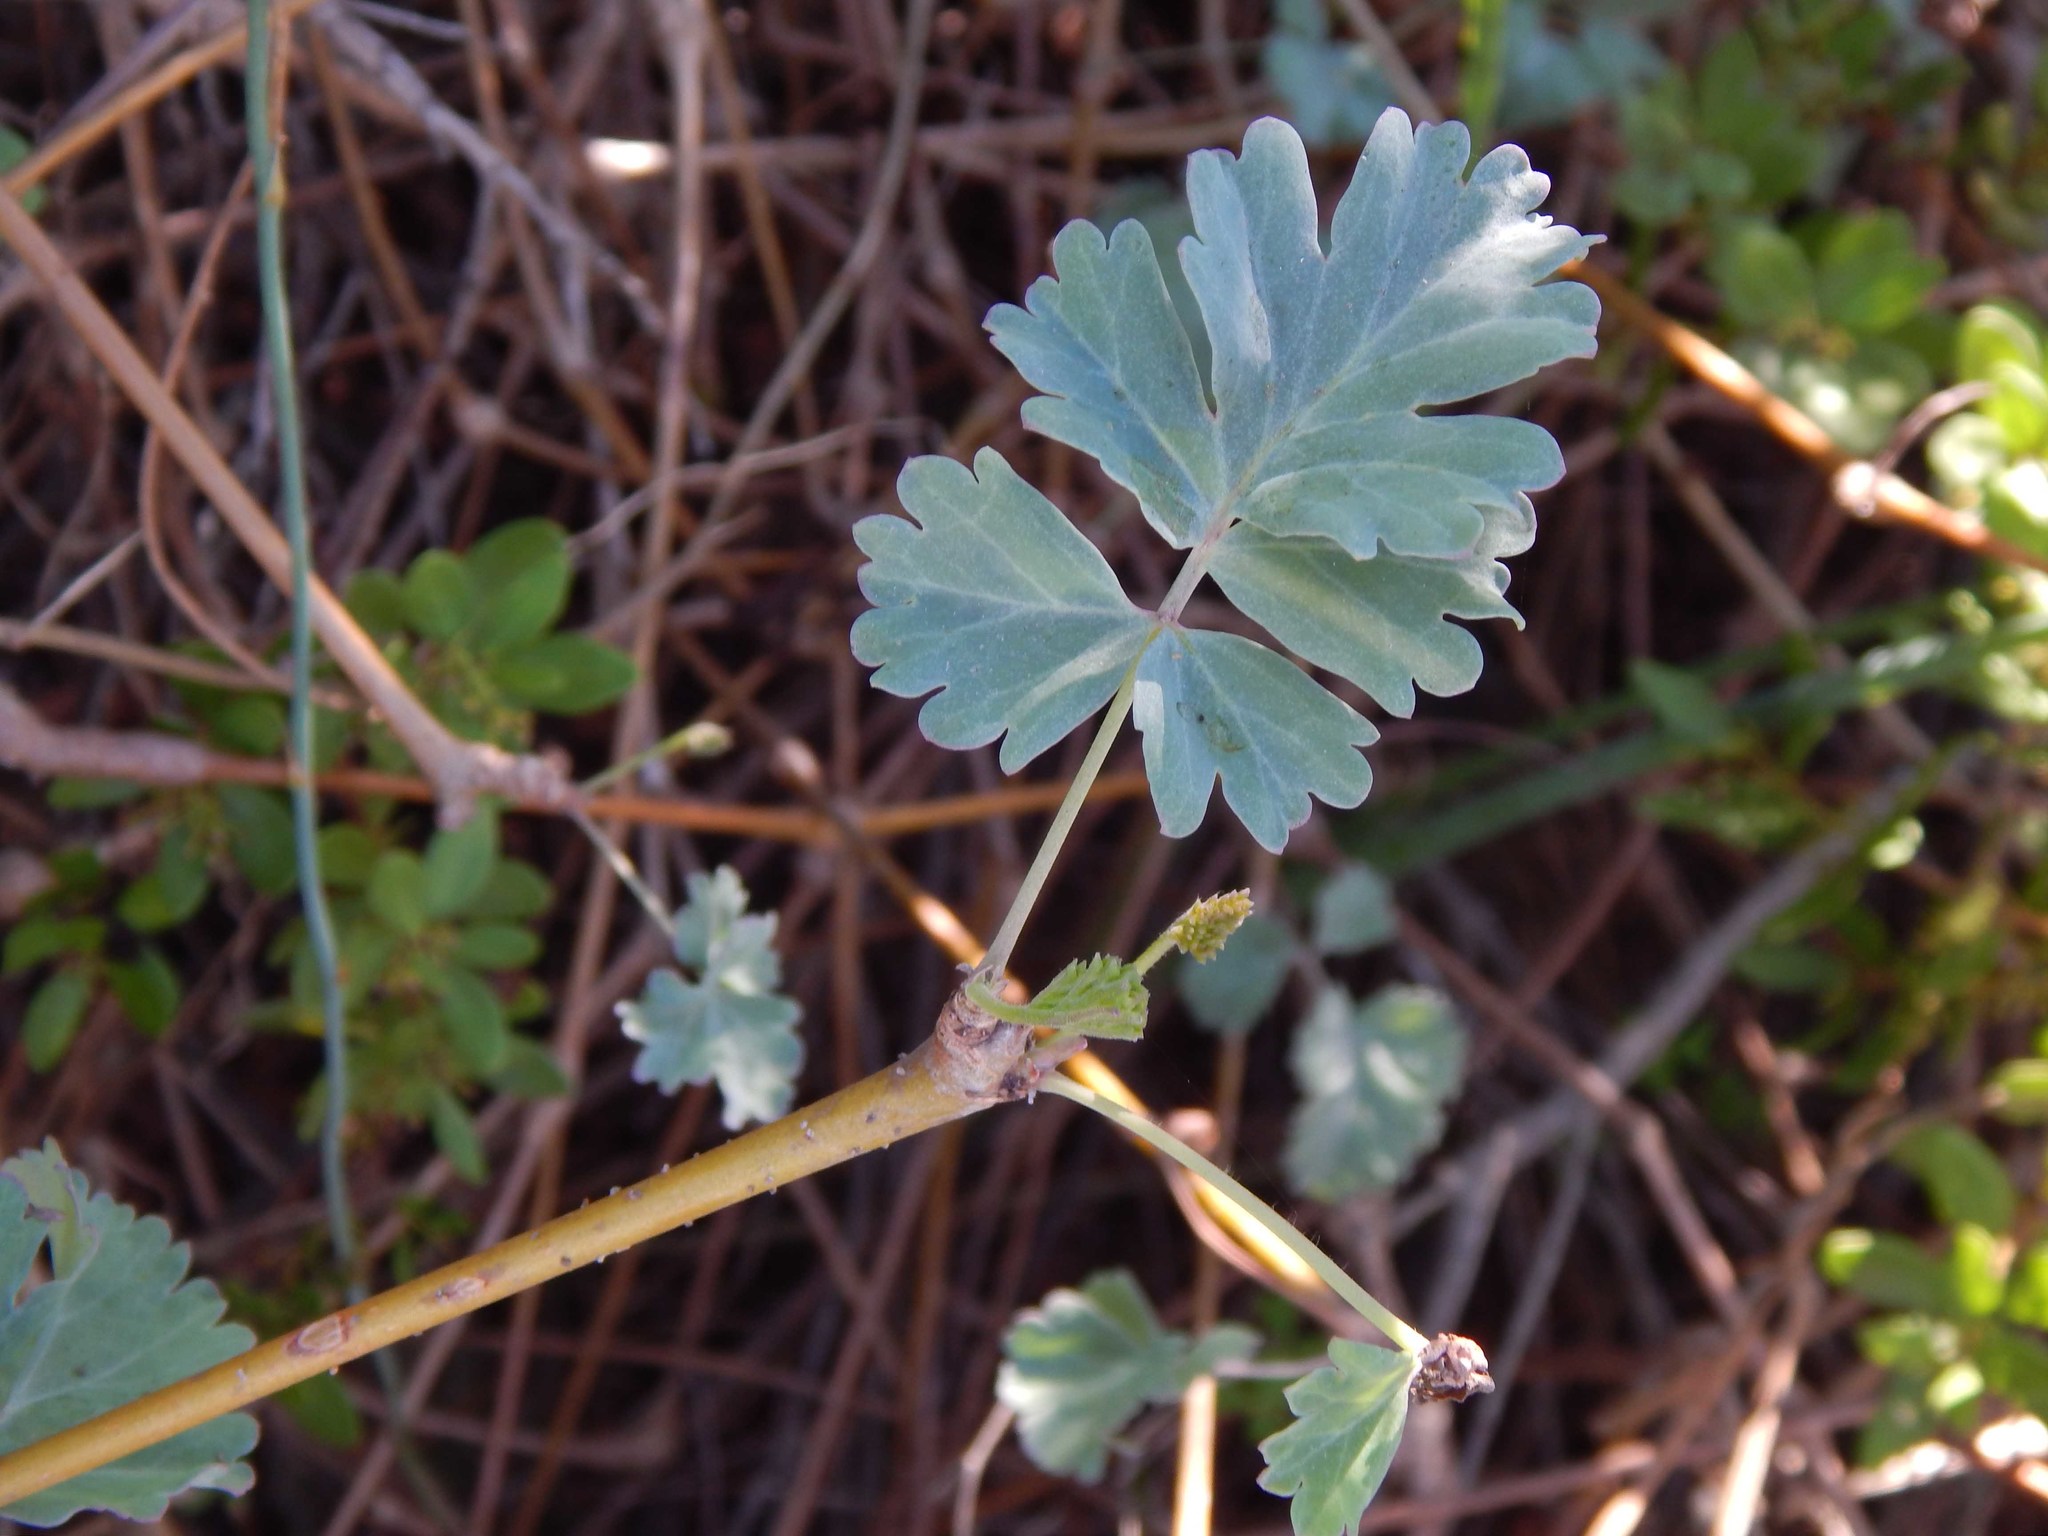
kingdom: Plantae
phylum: Tracheophyta
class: Magnoliopsida
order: Geraniales
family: Geraniaceae
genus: Pelargonium
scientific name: Pelargonium gibbosum
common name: Gouty geranium
